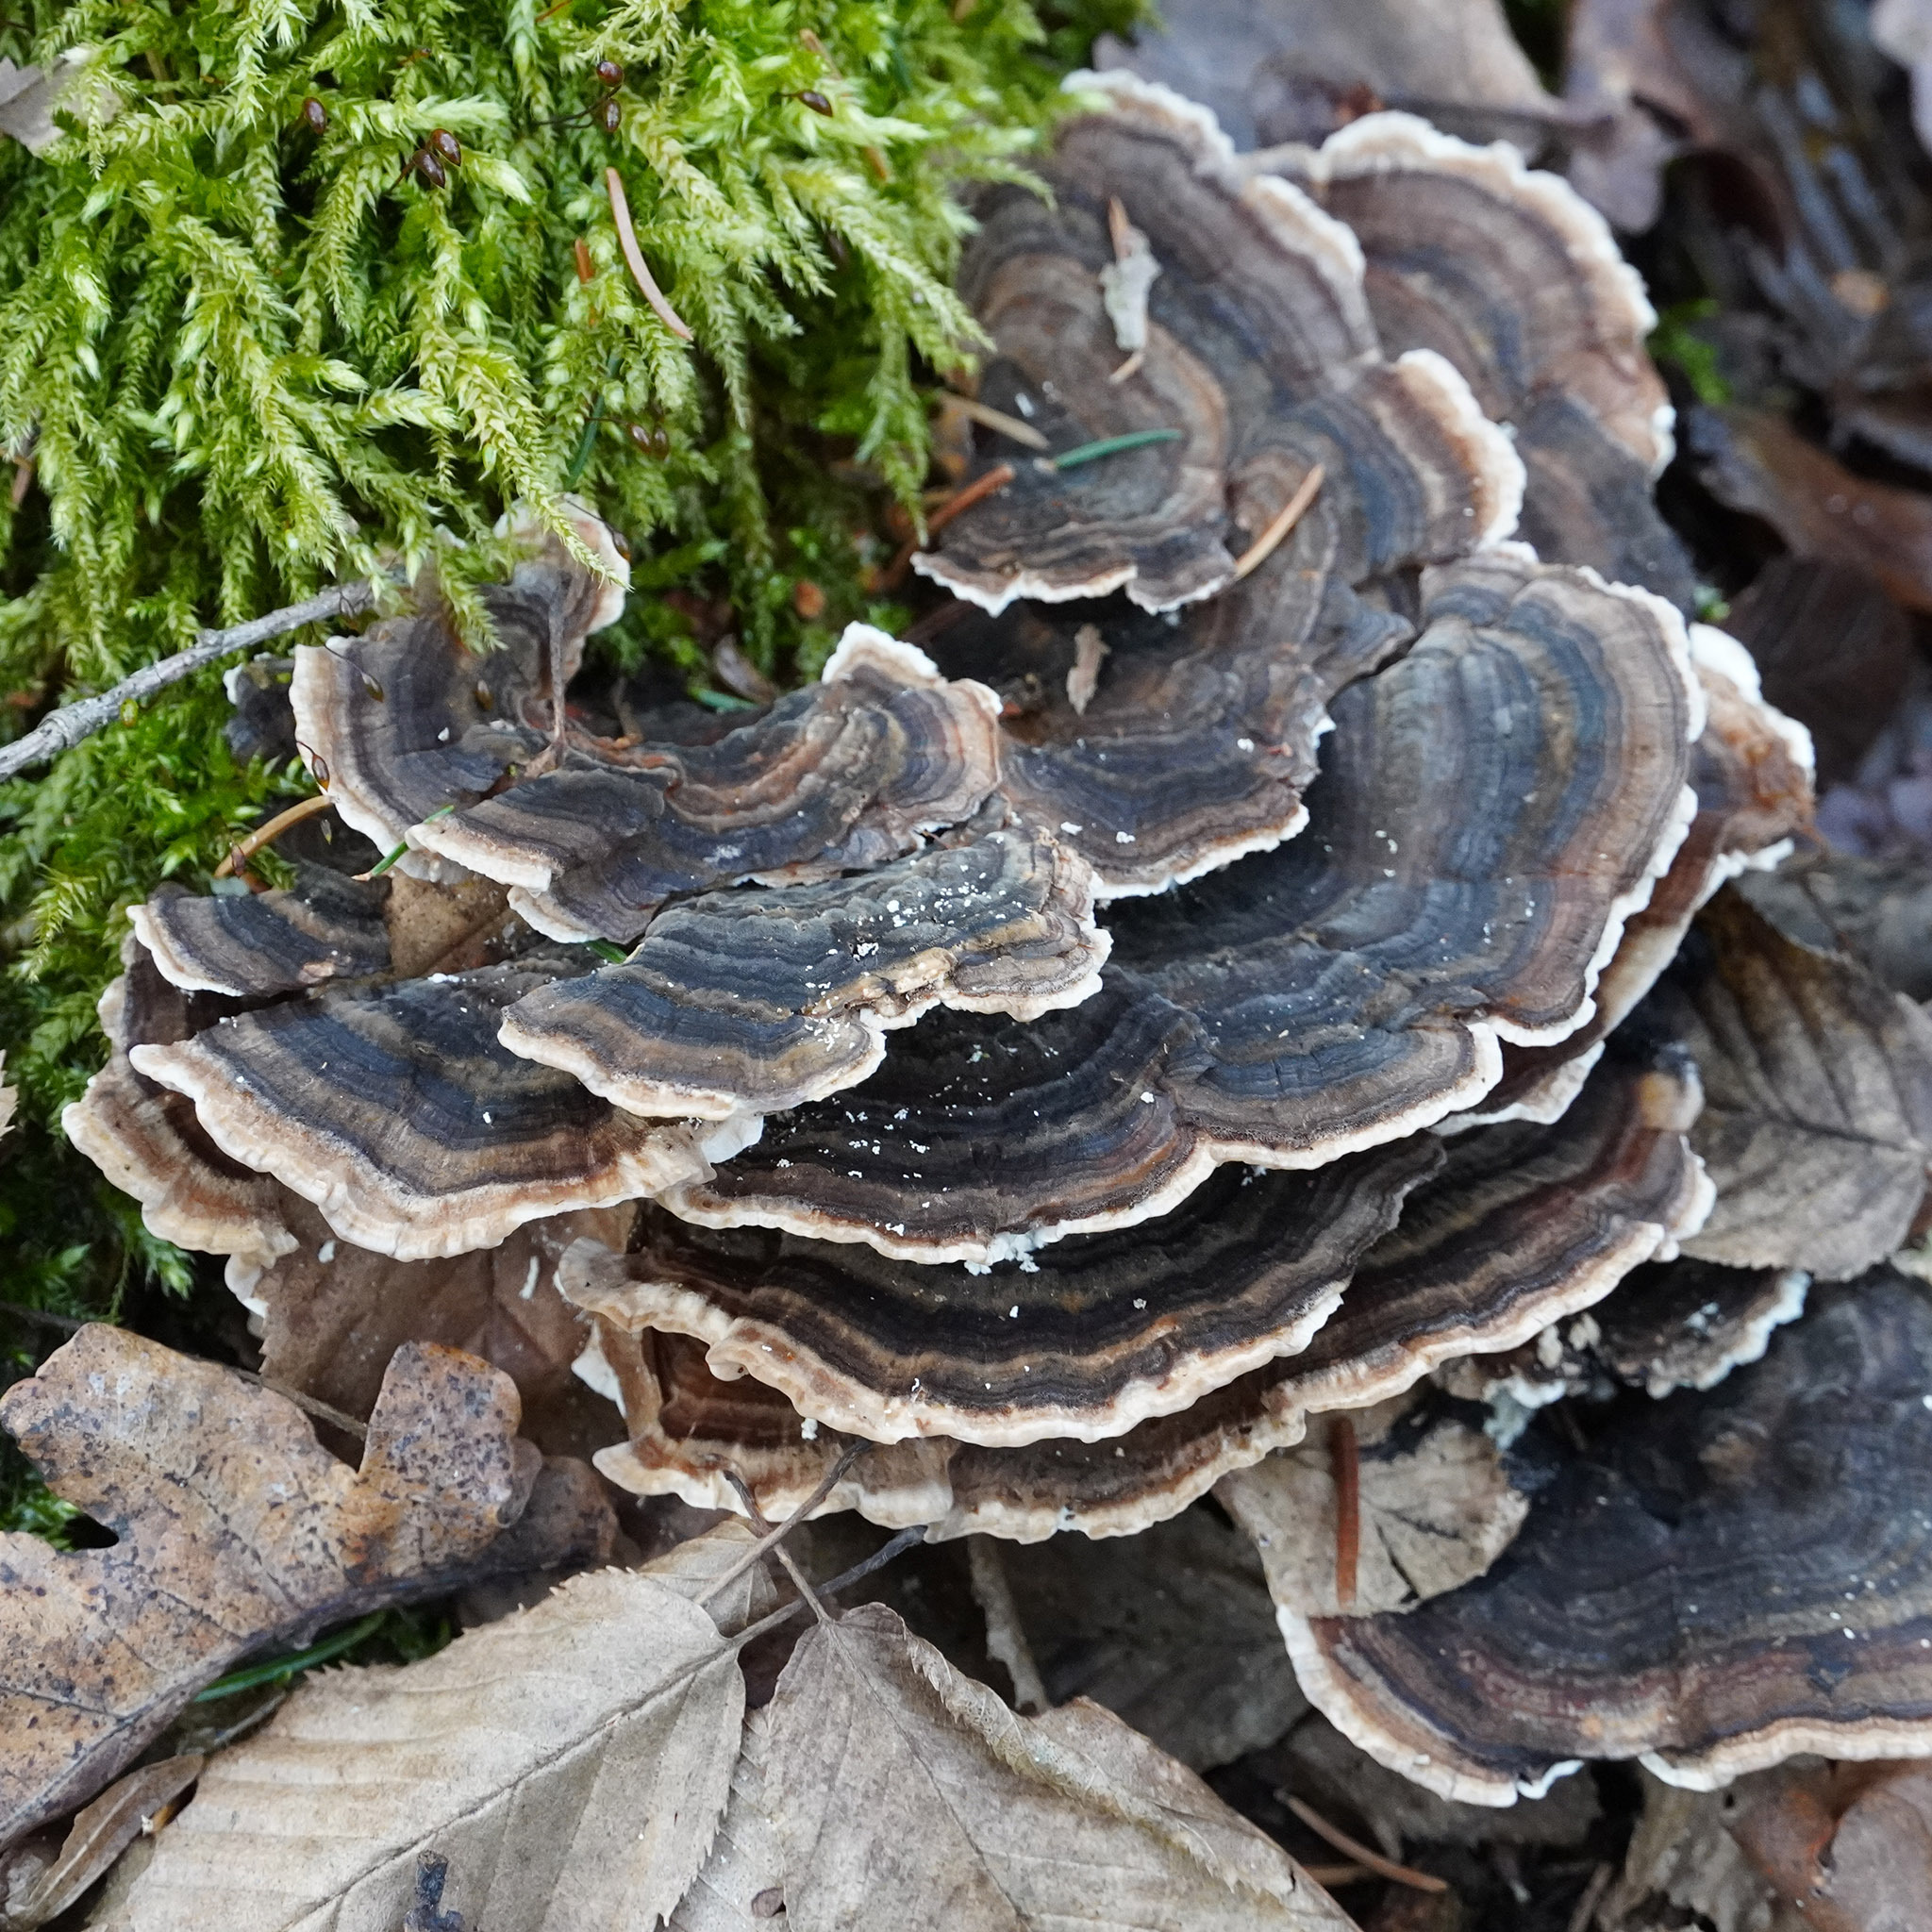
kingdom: Fungi
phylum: Basidiomycota
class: Agaricomycetes
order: Polyporales
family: Polyporaceae
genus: Trametes
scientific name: Trametes versicolor
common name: Turkeytail
